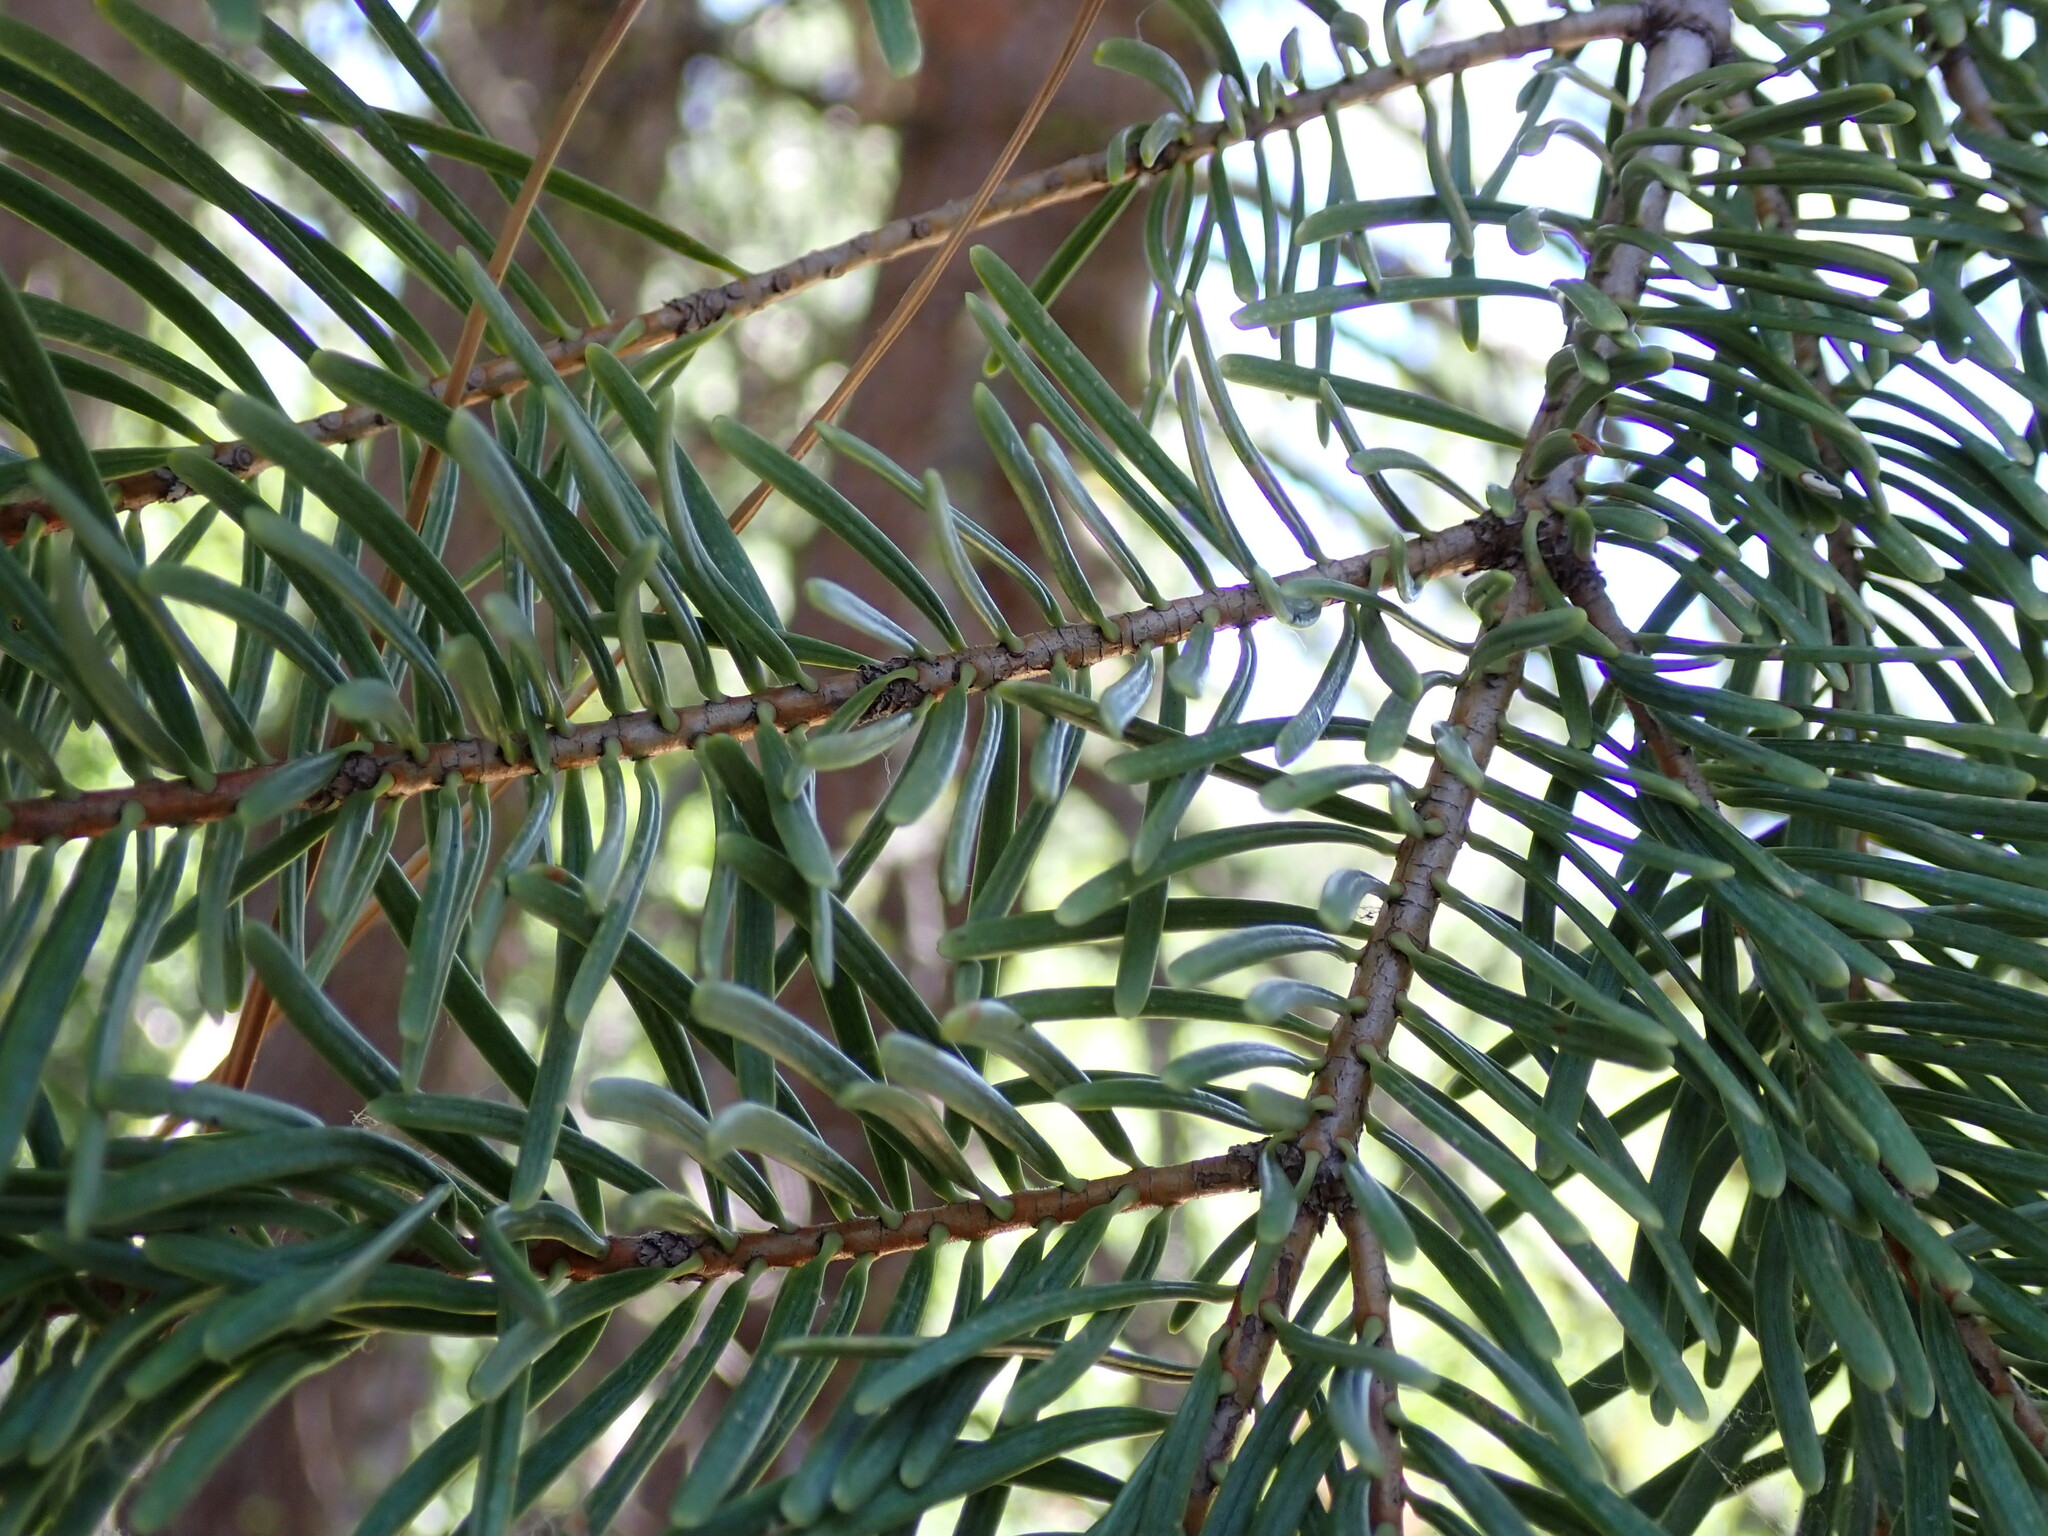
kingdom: Plantae
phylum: Tracheophyta
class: Pinopsida
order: Pinales
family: Pinaceae
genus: Abies
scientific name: Abies concolor
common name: Colorado fir
